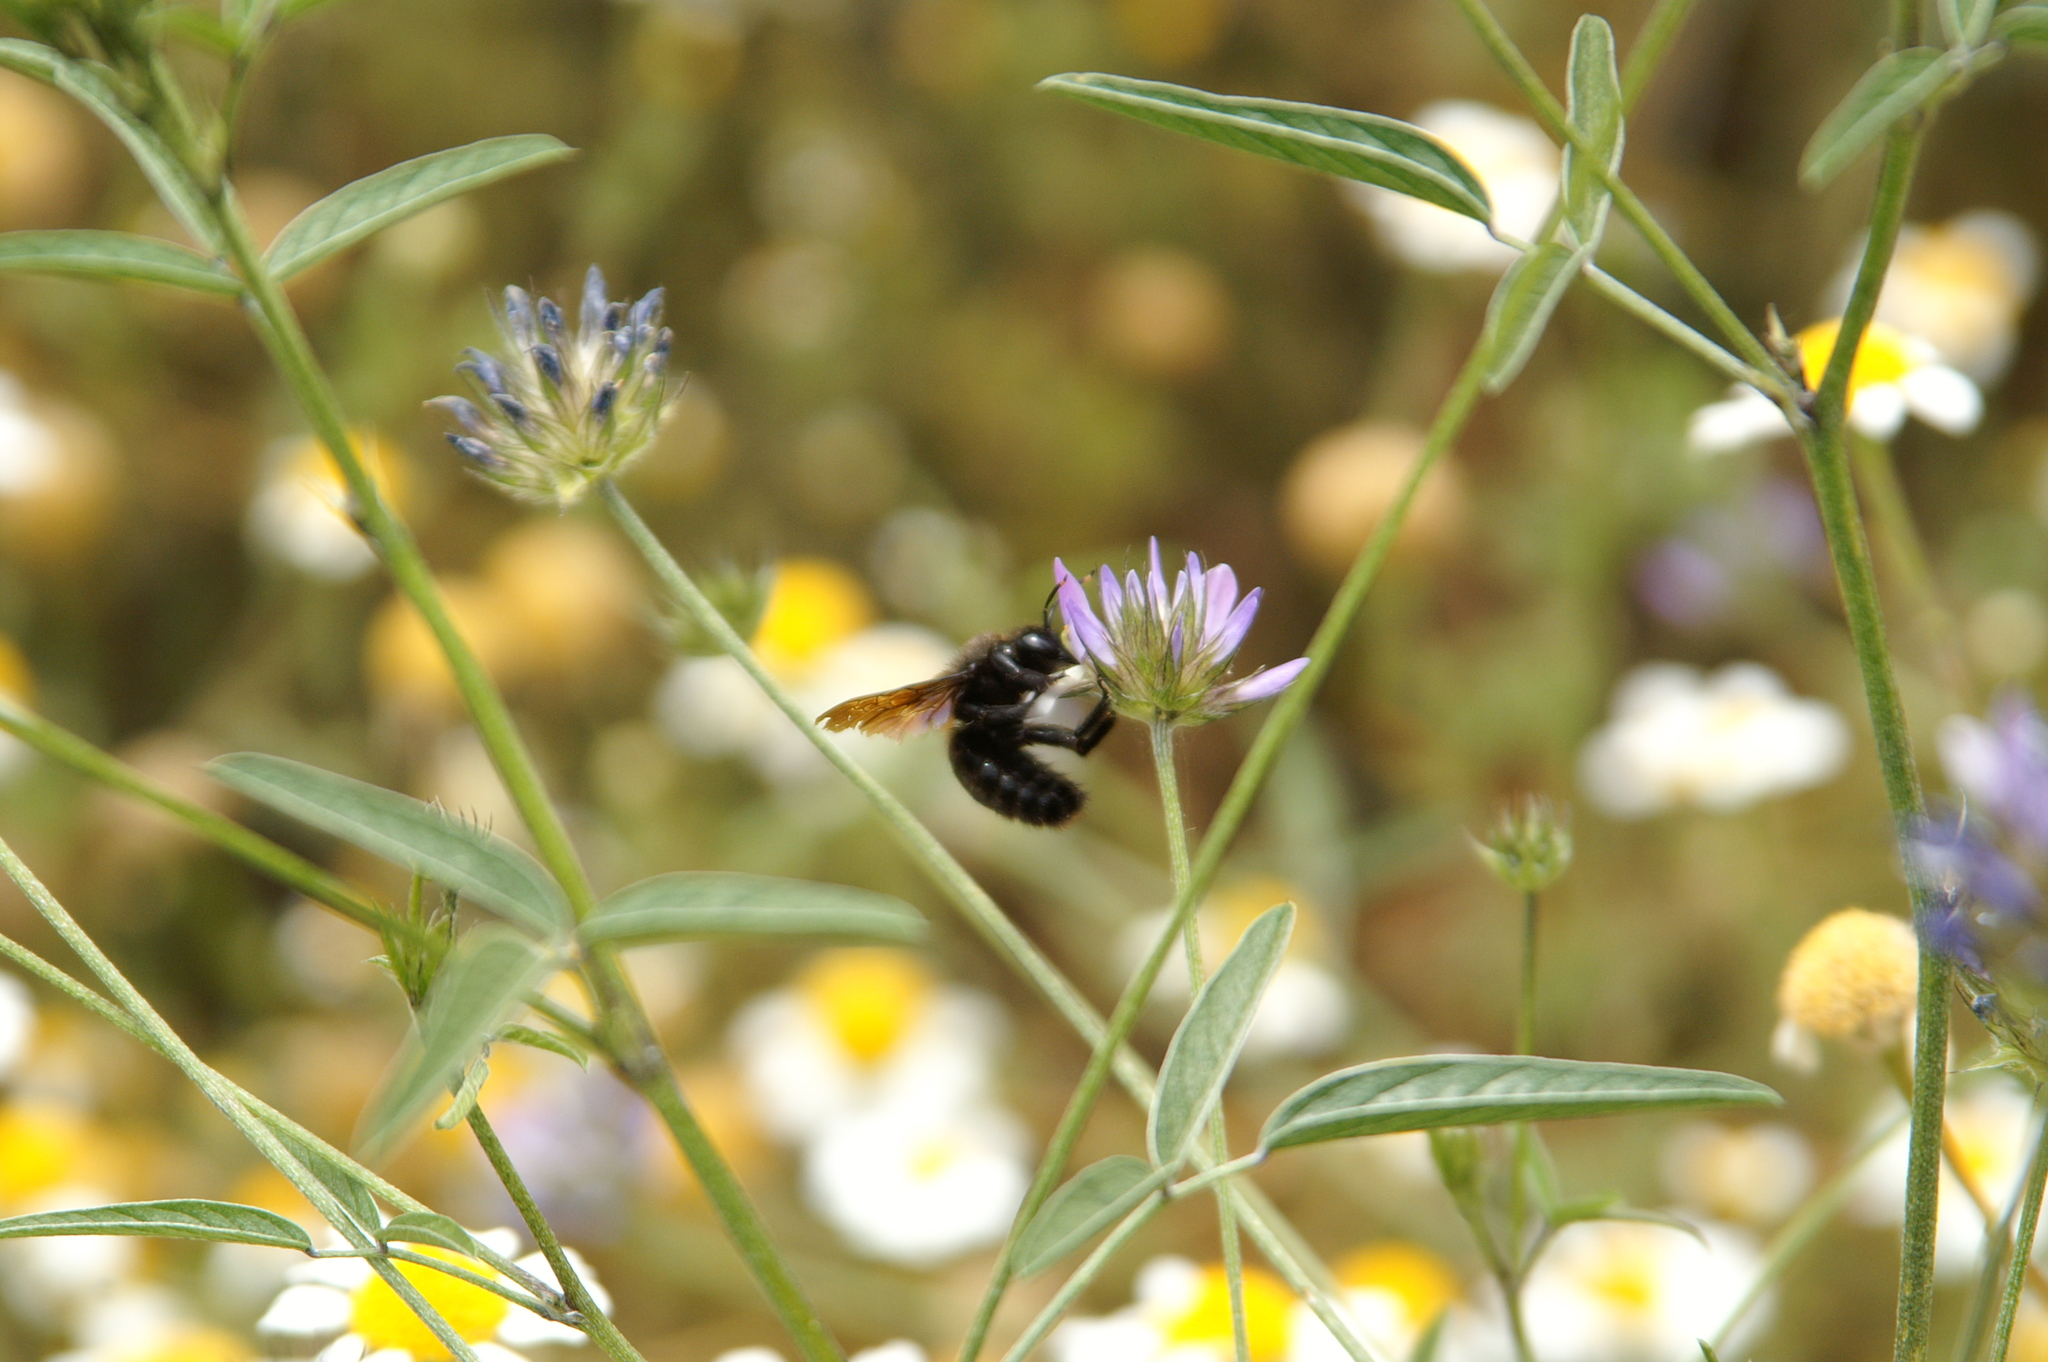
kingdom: Animalia
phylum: Arthropoda
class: Insecta
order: Hymenoptera
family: Apidae
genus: Xylocopa
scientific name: Xylocopa violacea
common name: Violet carpenter bee
